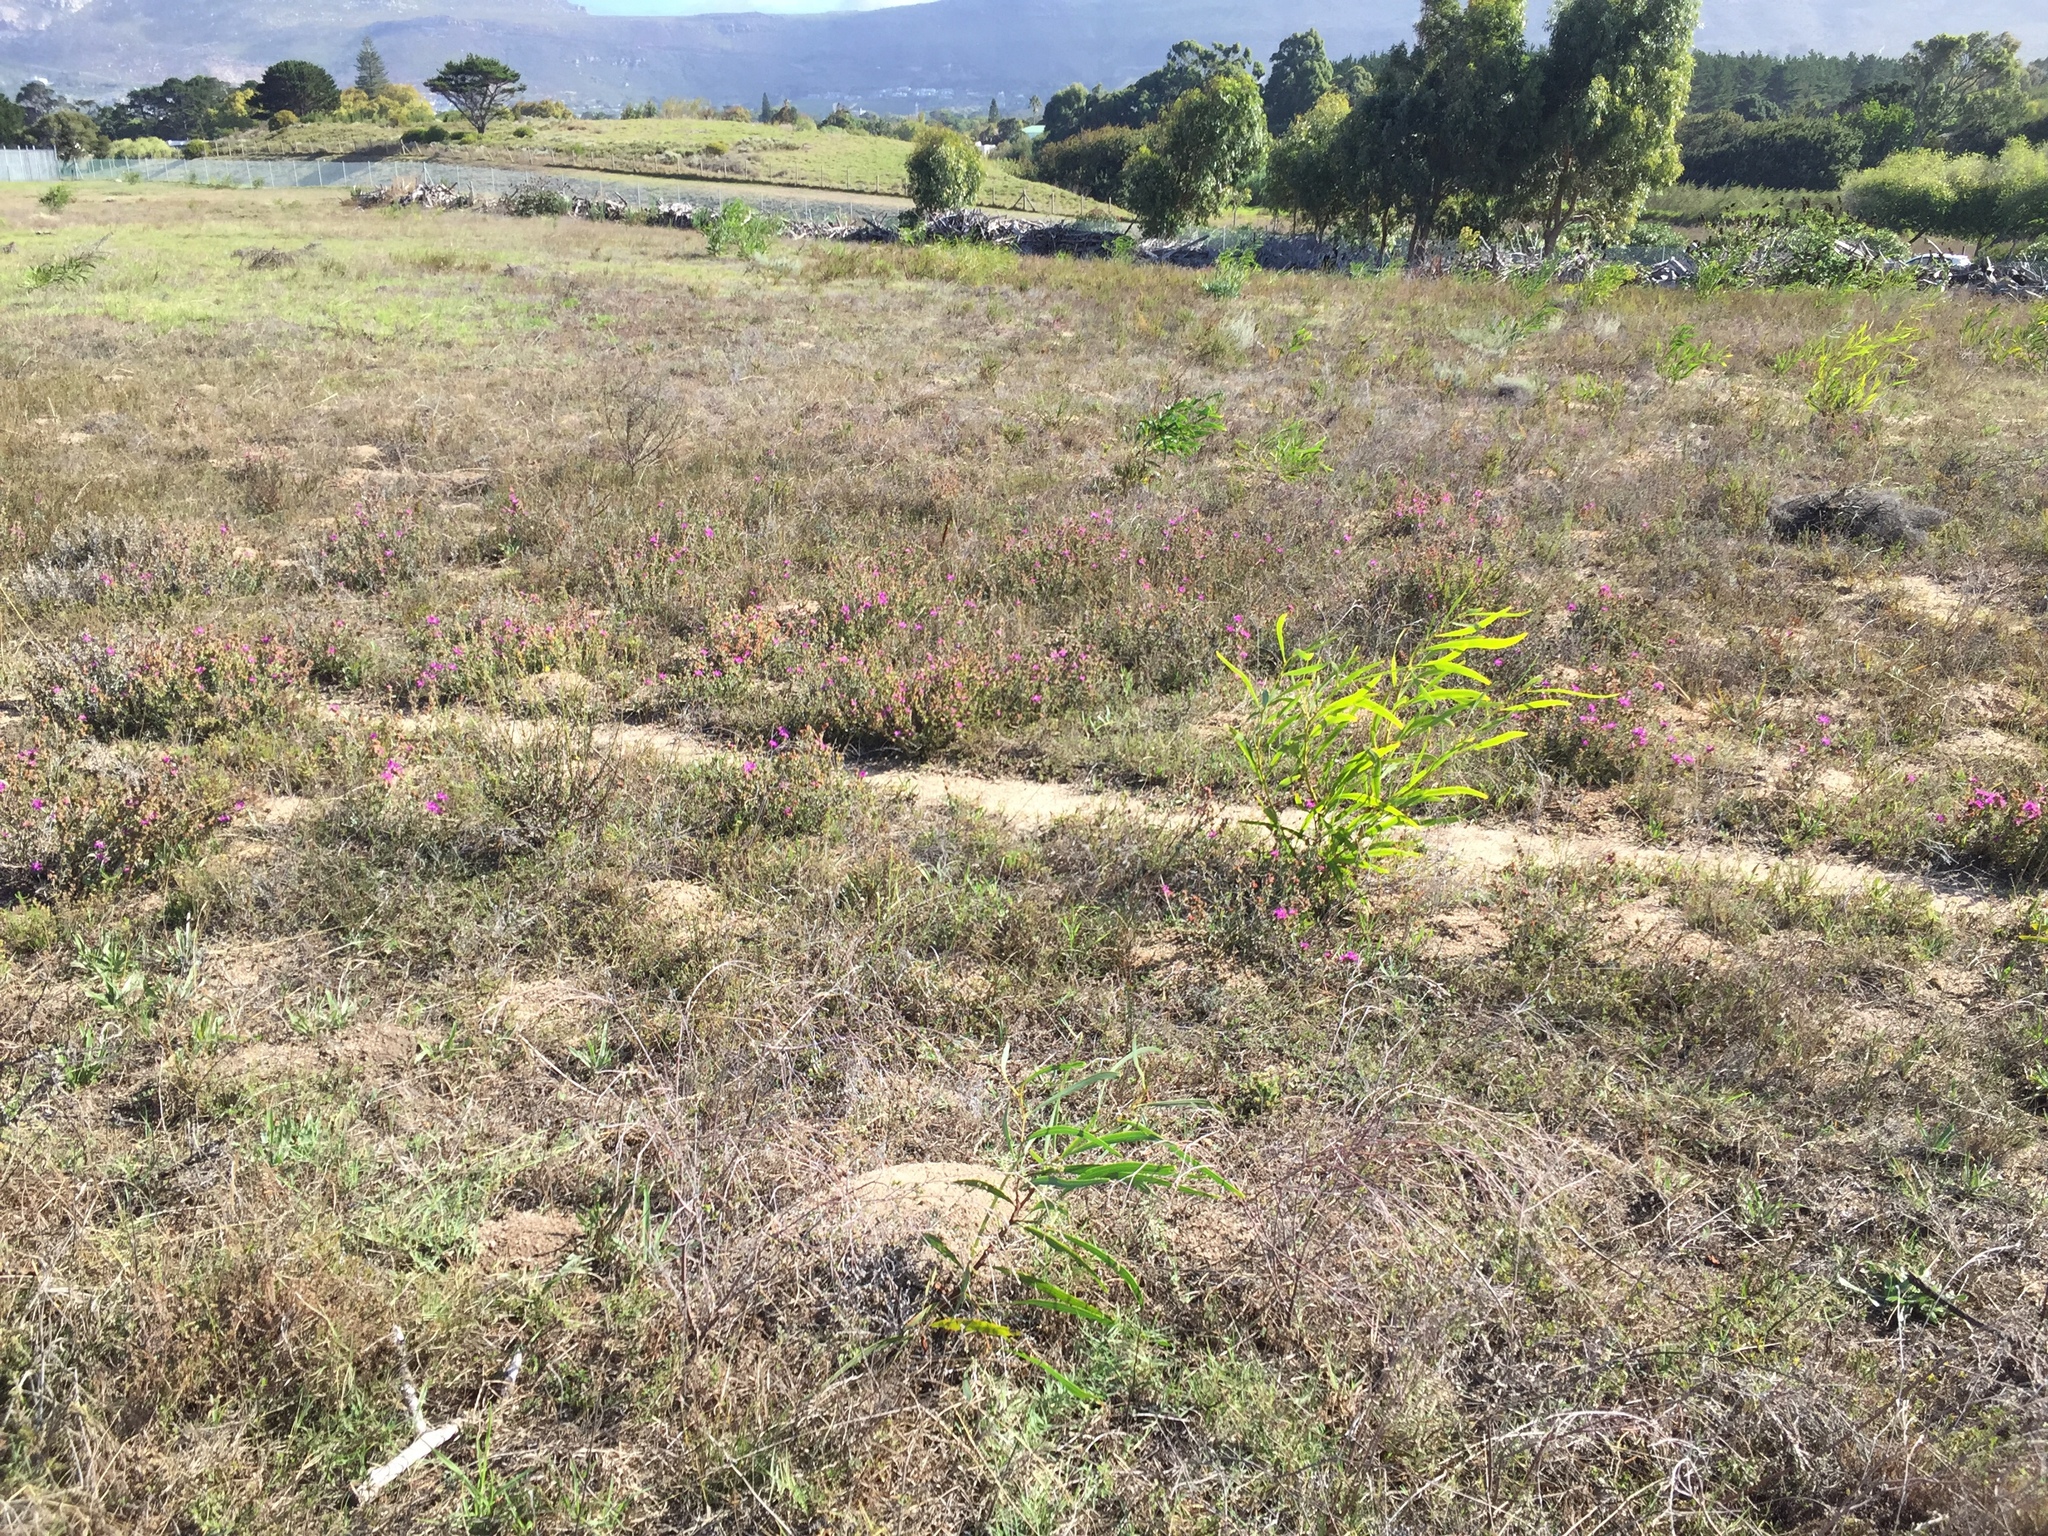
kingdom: Plantae
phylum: Tracheophyta
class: Magnoliopsida
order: Fabales
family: Fabaceae
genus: Acacia
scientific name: Acacia saligna
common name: Orange wattle
